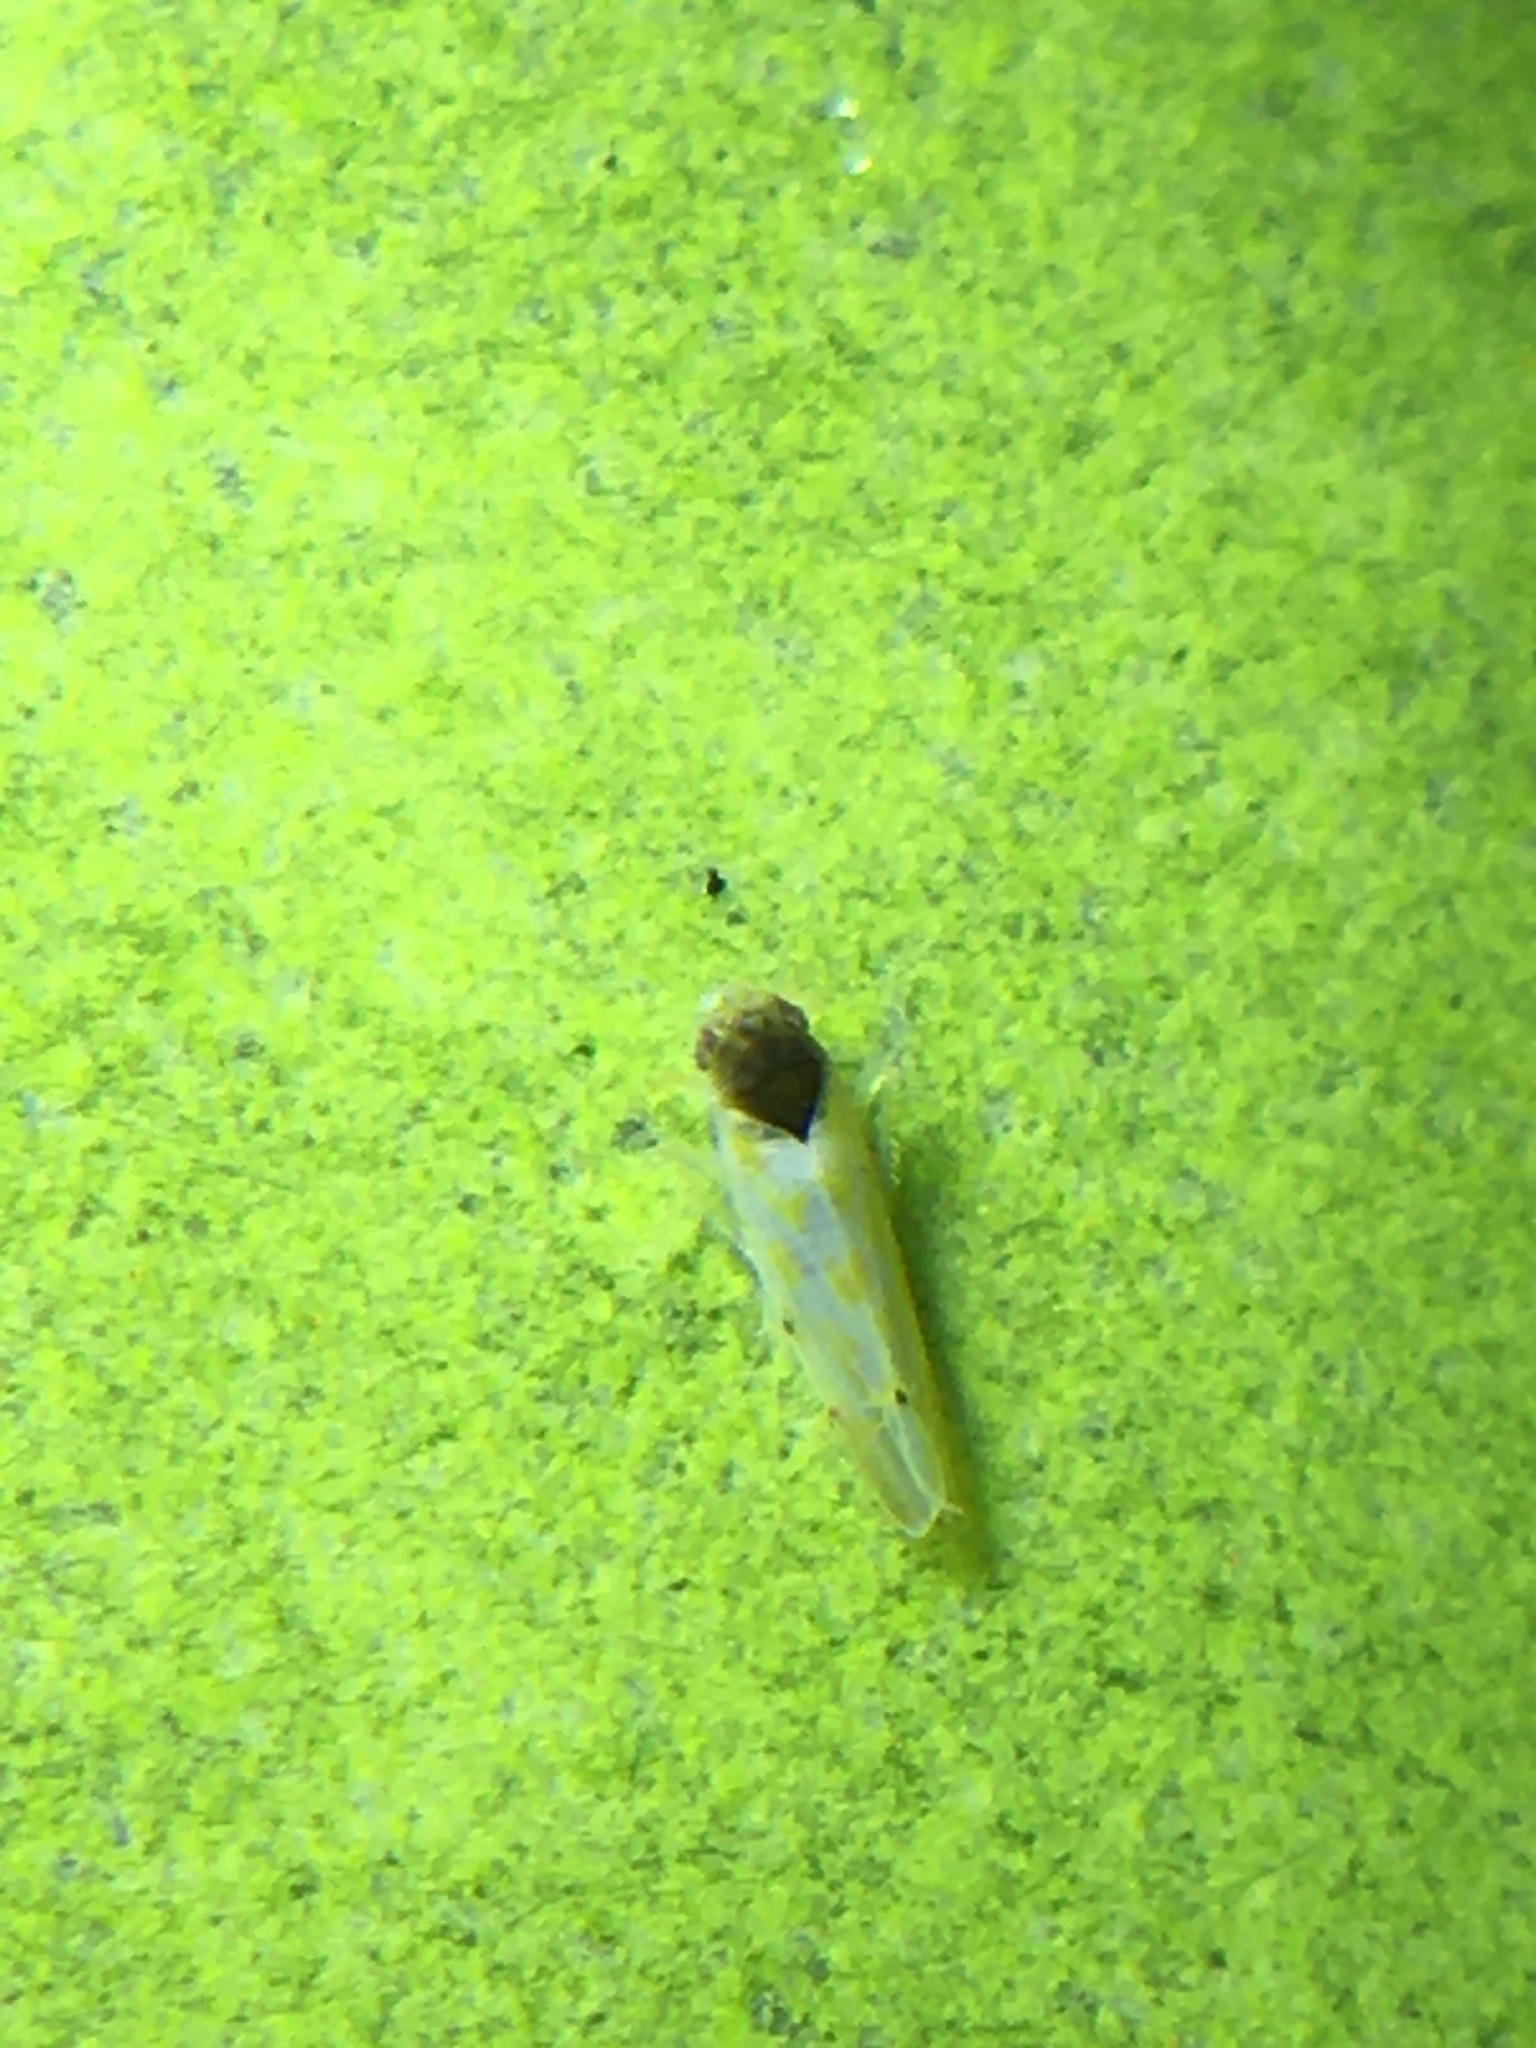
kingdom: Animalia
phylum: Arthropoda
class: Insecta
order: Hemiptera
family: Cicadellidae
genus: Eratoneura
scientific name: Eratoneura ardens
